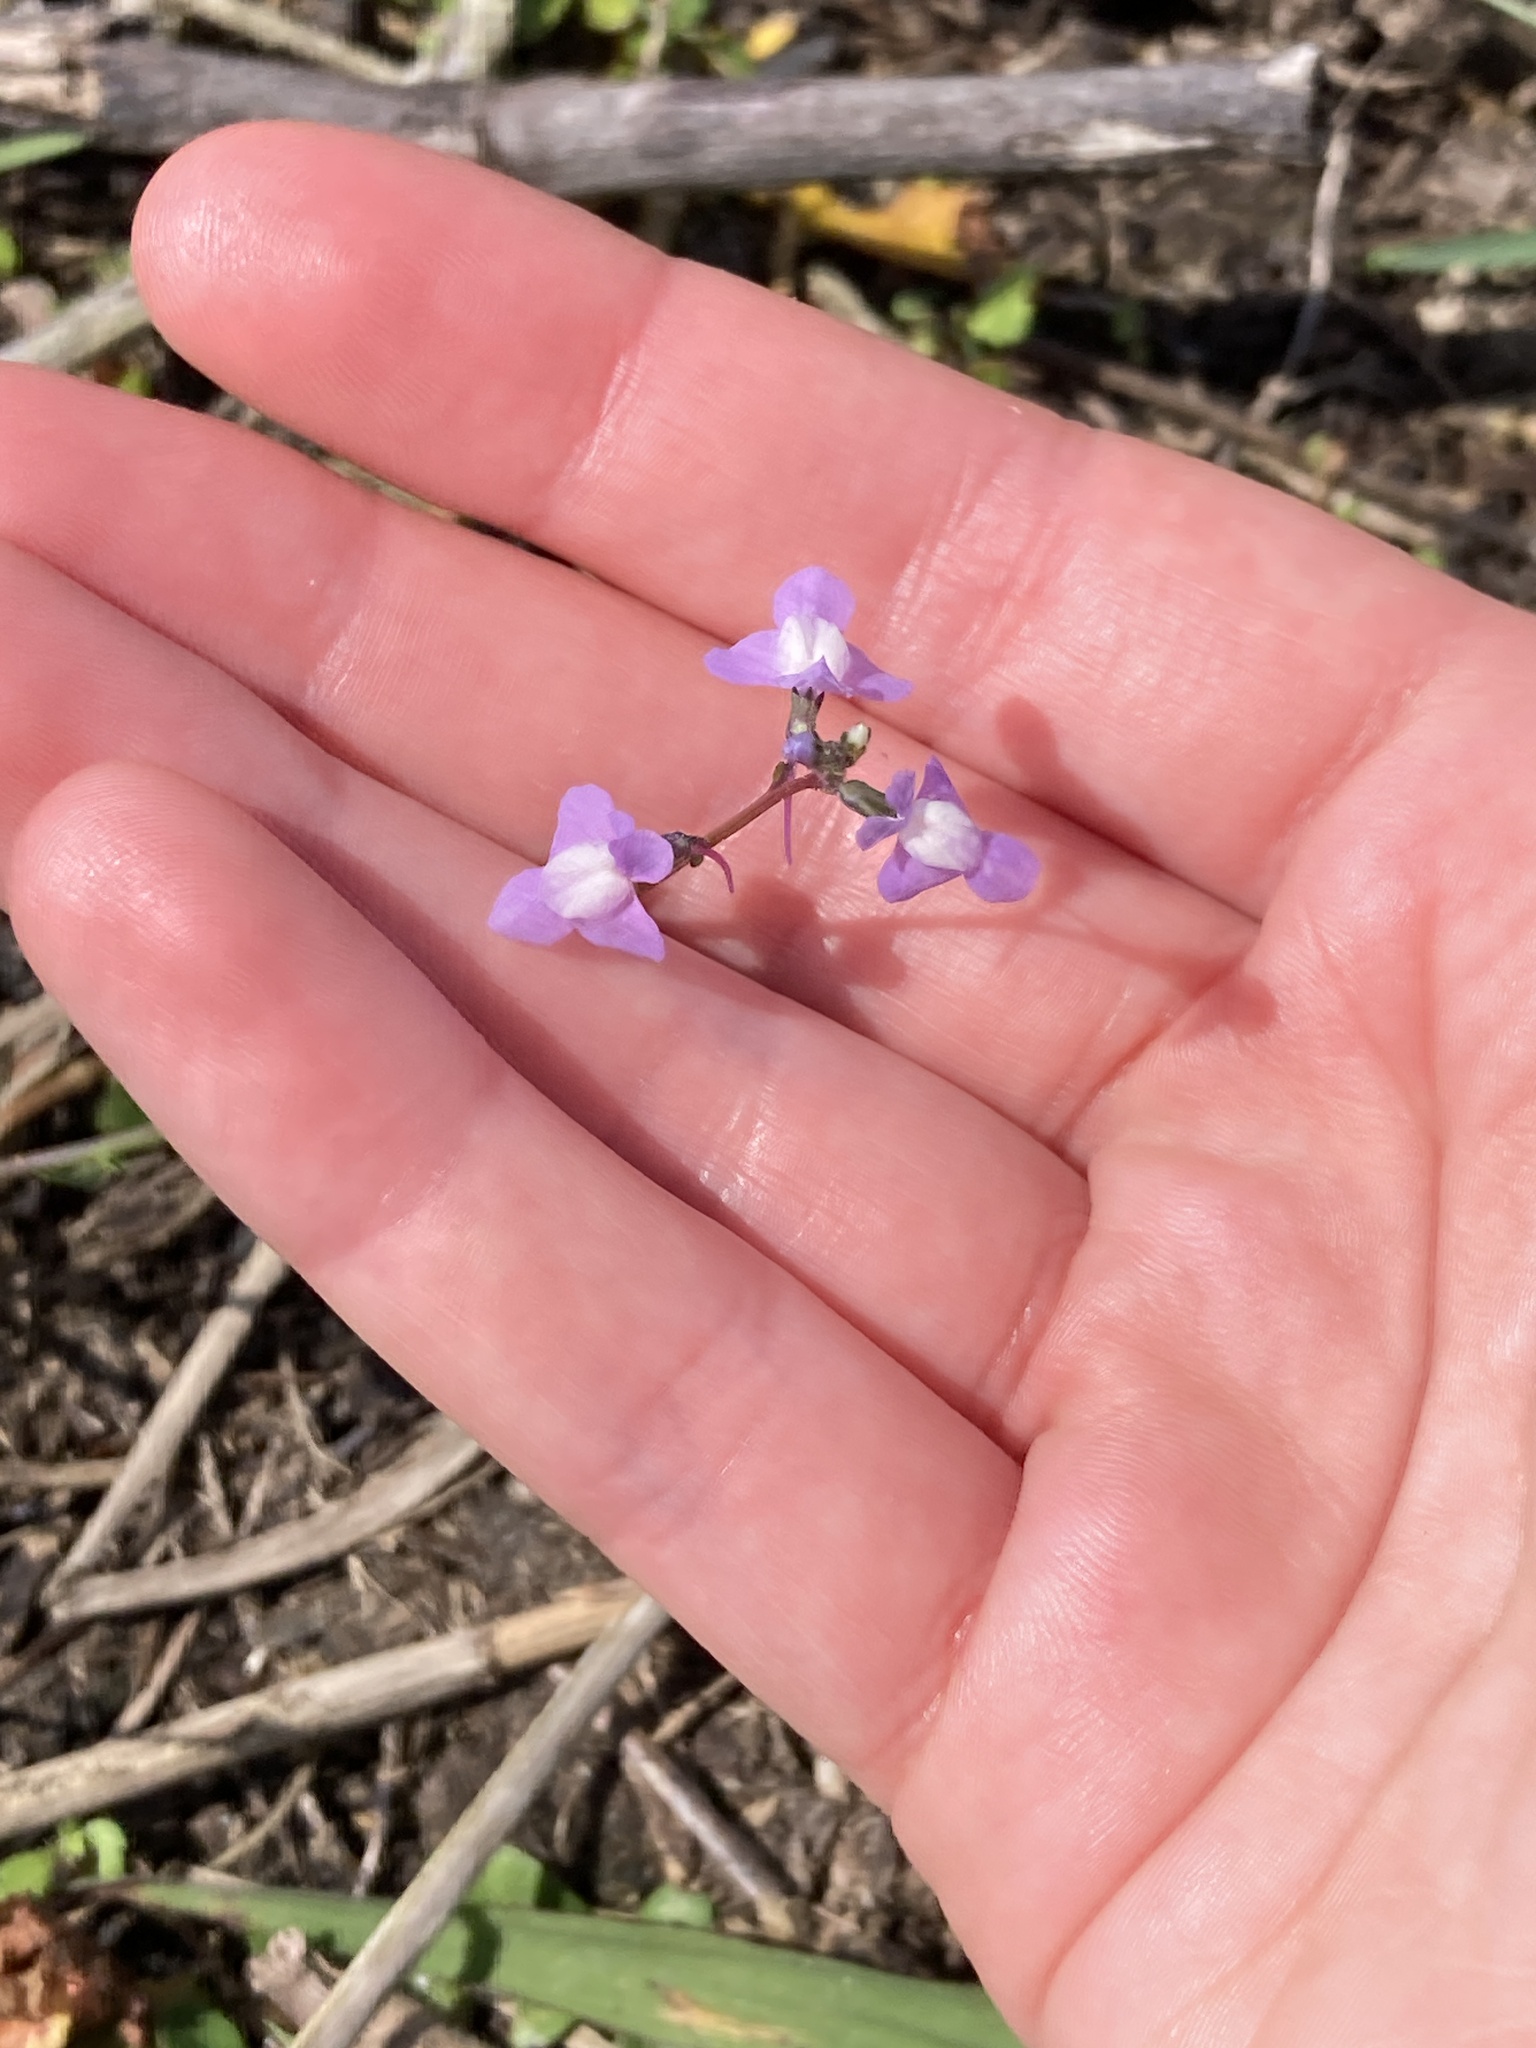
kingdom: Plantae
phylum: Tracheophyta
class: Magnoliopsida
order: Lamiales
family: Plantaginaceae
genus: Nuttallanthus
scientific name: Nuttallanthus canadensis
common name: Blue toadflax
